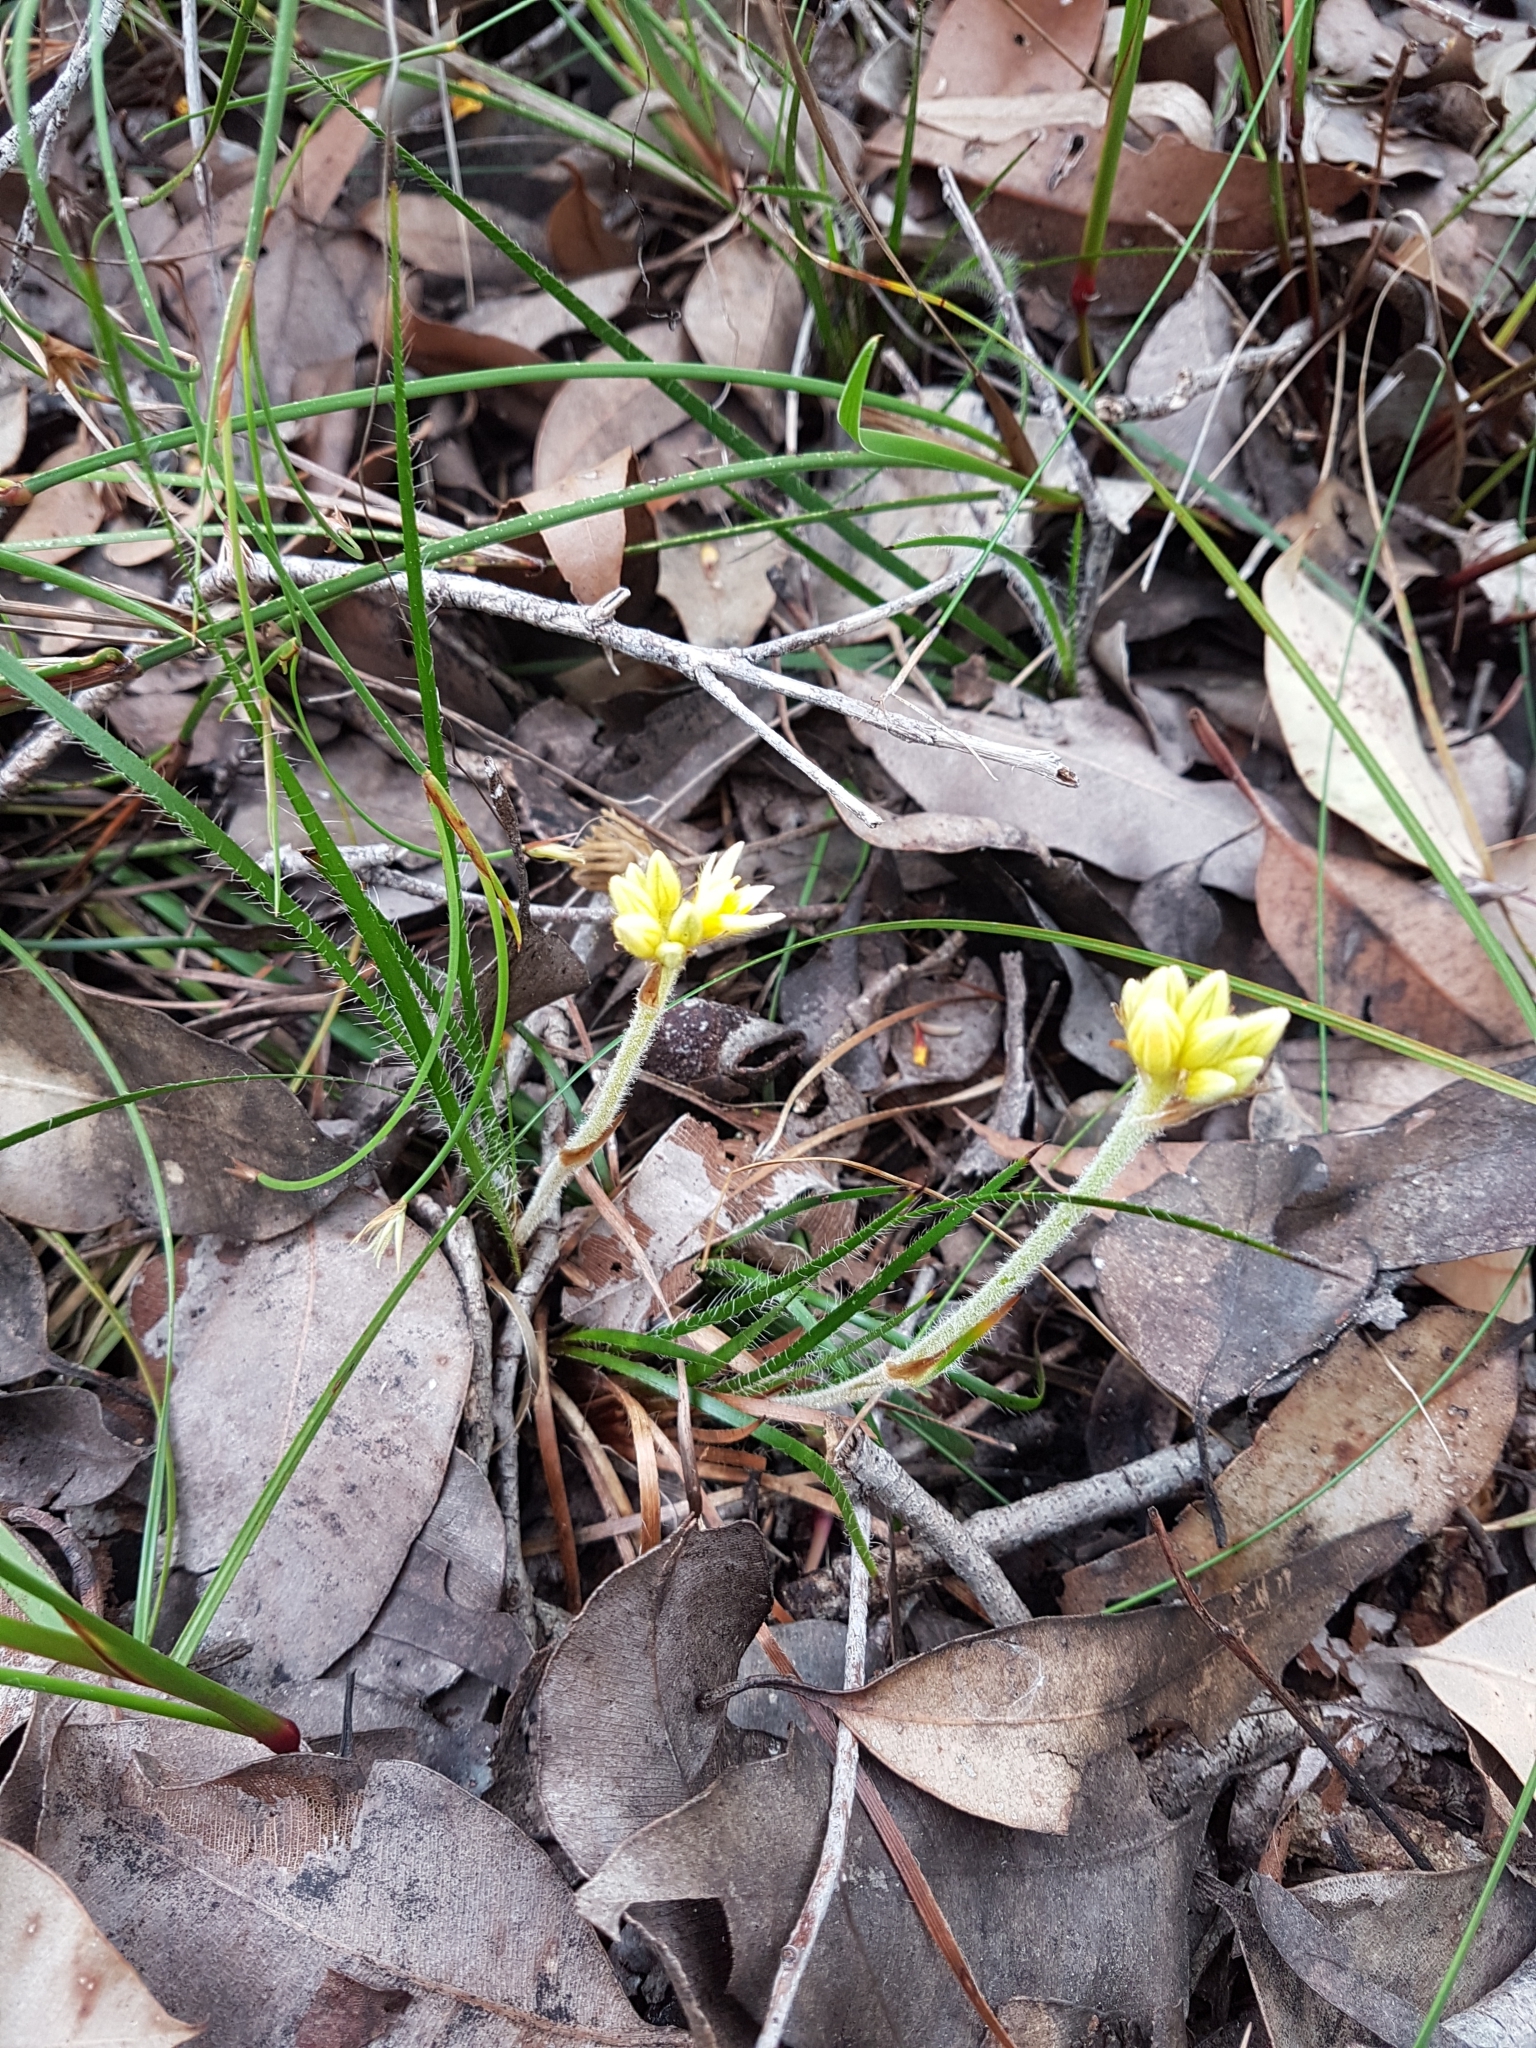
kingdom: Plantae
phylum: Tracheophyta
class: Liliopsida
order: Commelinales
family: Haemodoraceae
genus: Conostylis
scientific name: Conostylis setigera
